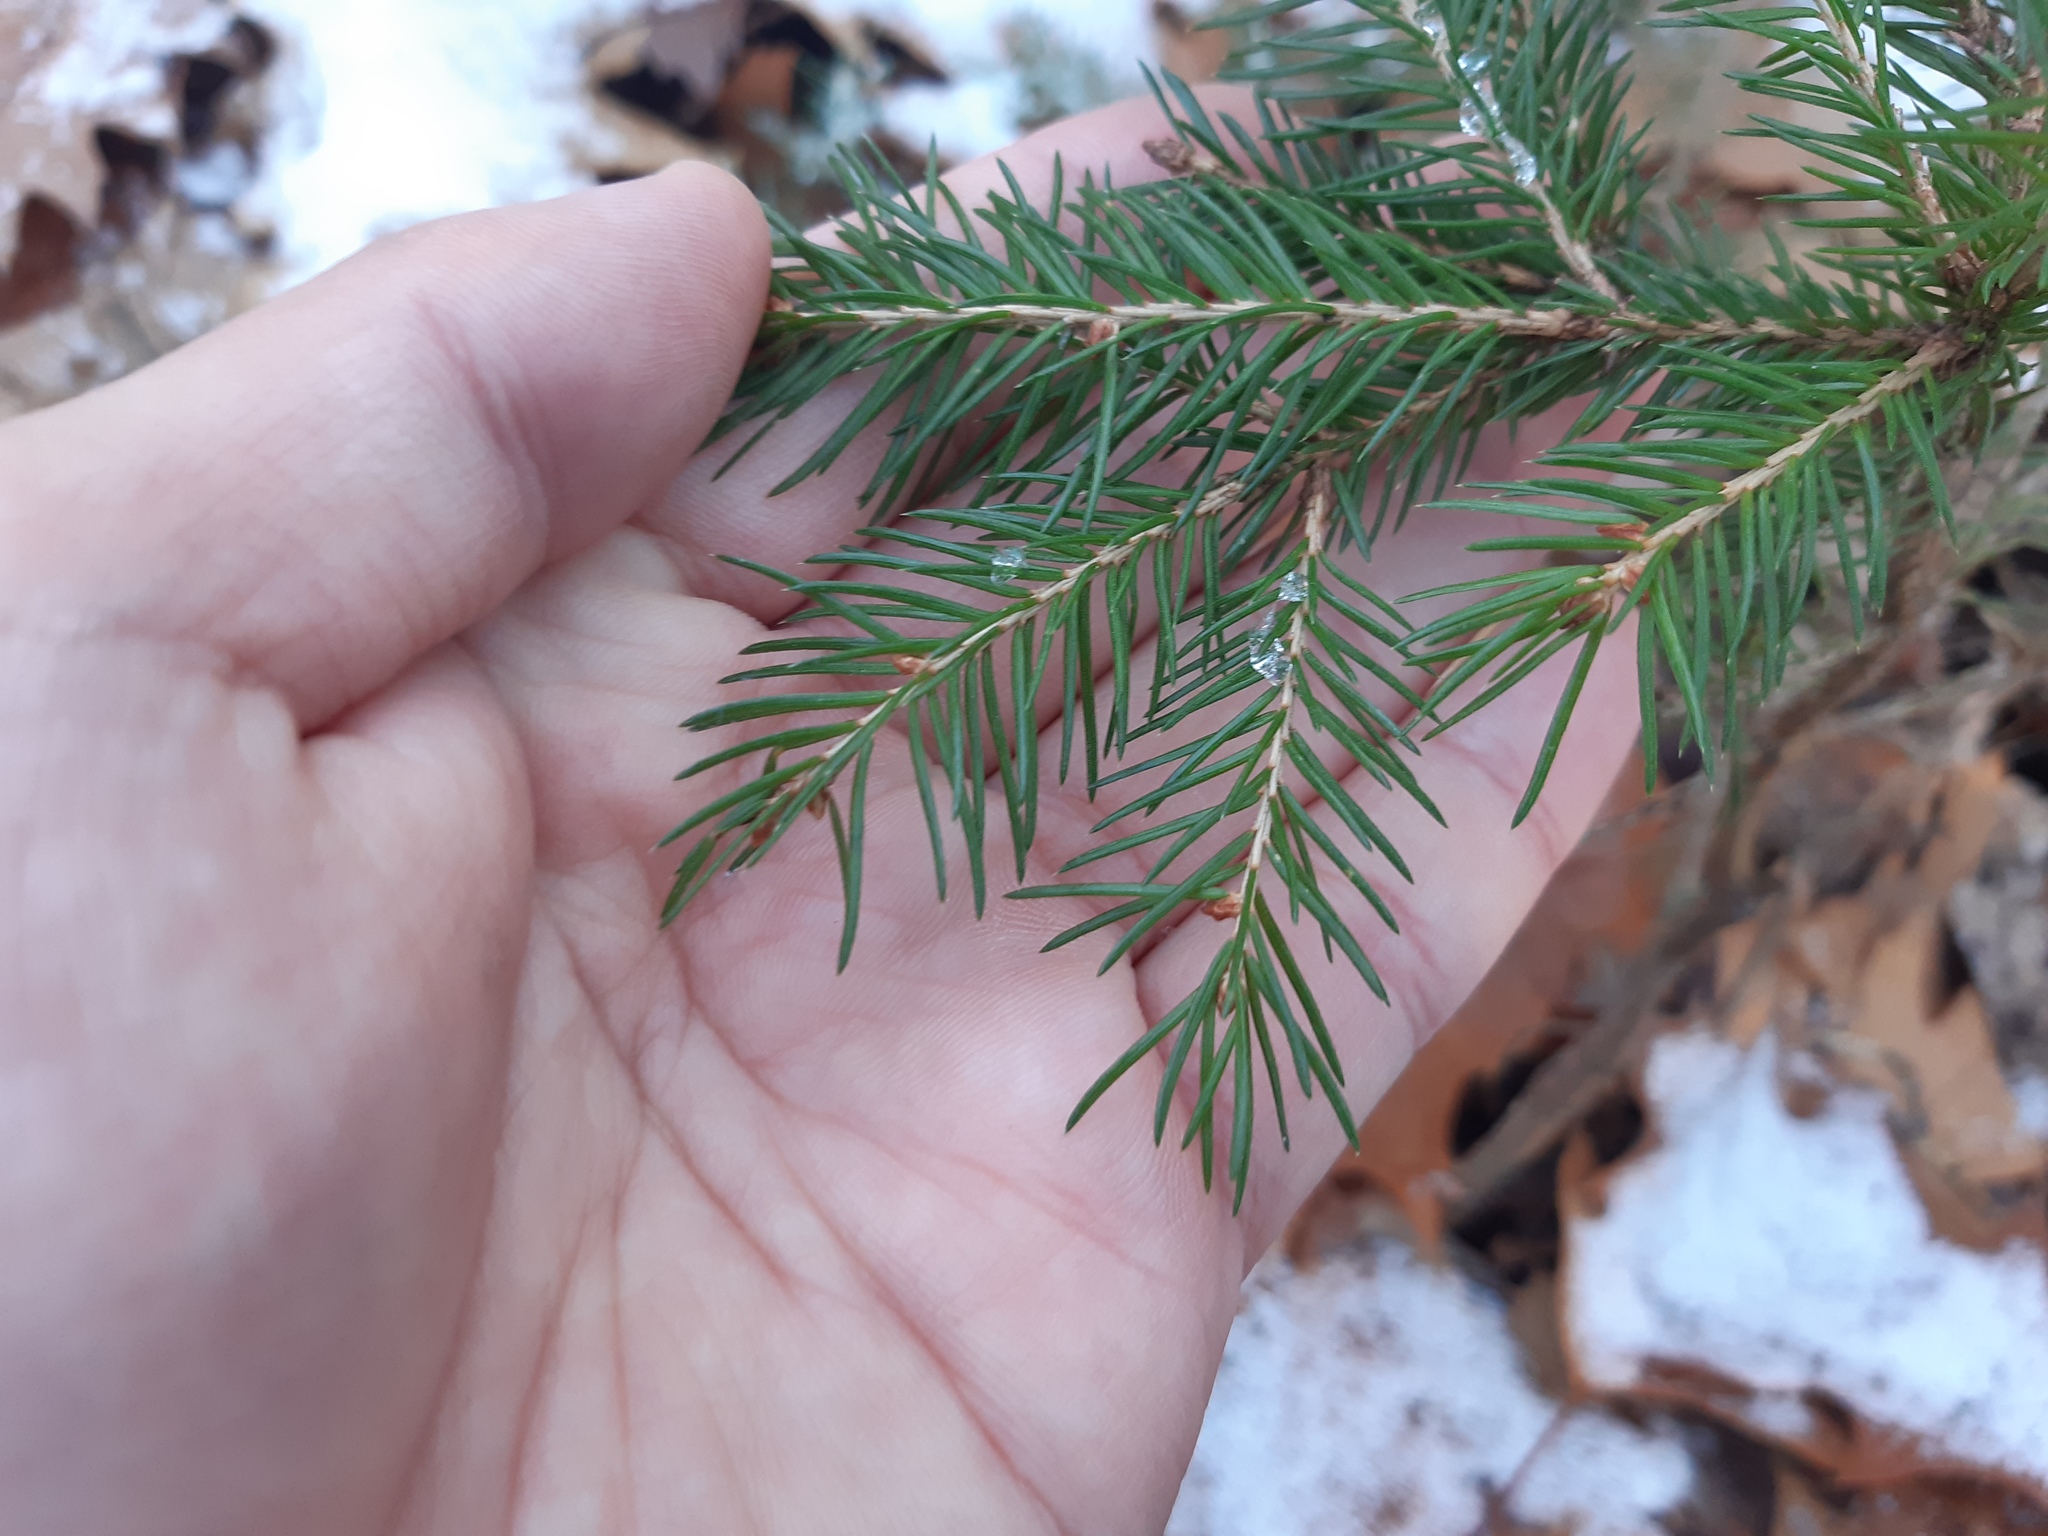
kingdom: Plantae
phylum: Tracheophyta
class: Pinopsida
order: Pinales
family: Pinaceae
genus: Picea
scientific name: Picea abies
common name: Norway spruce
